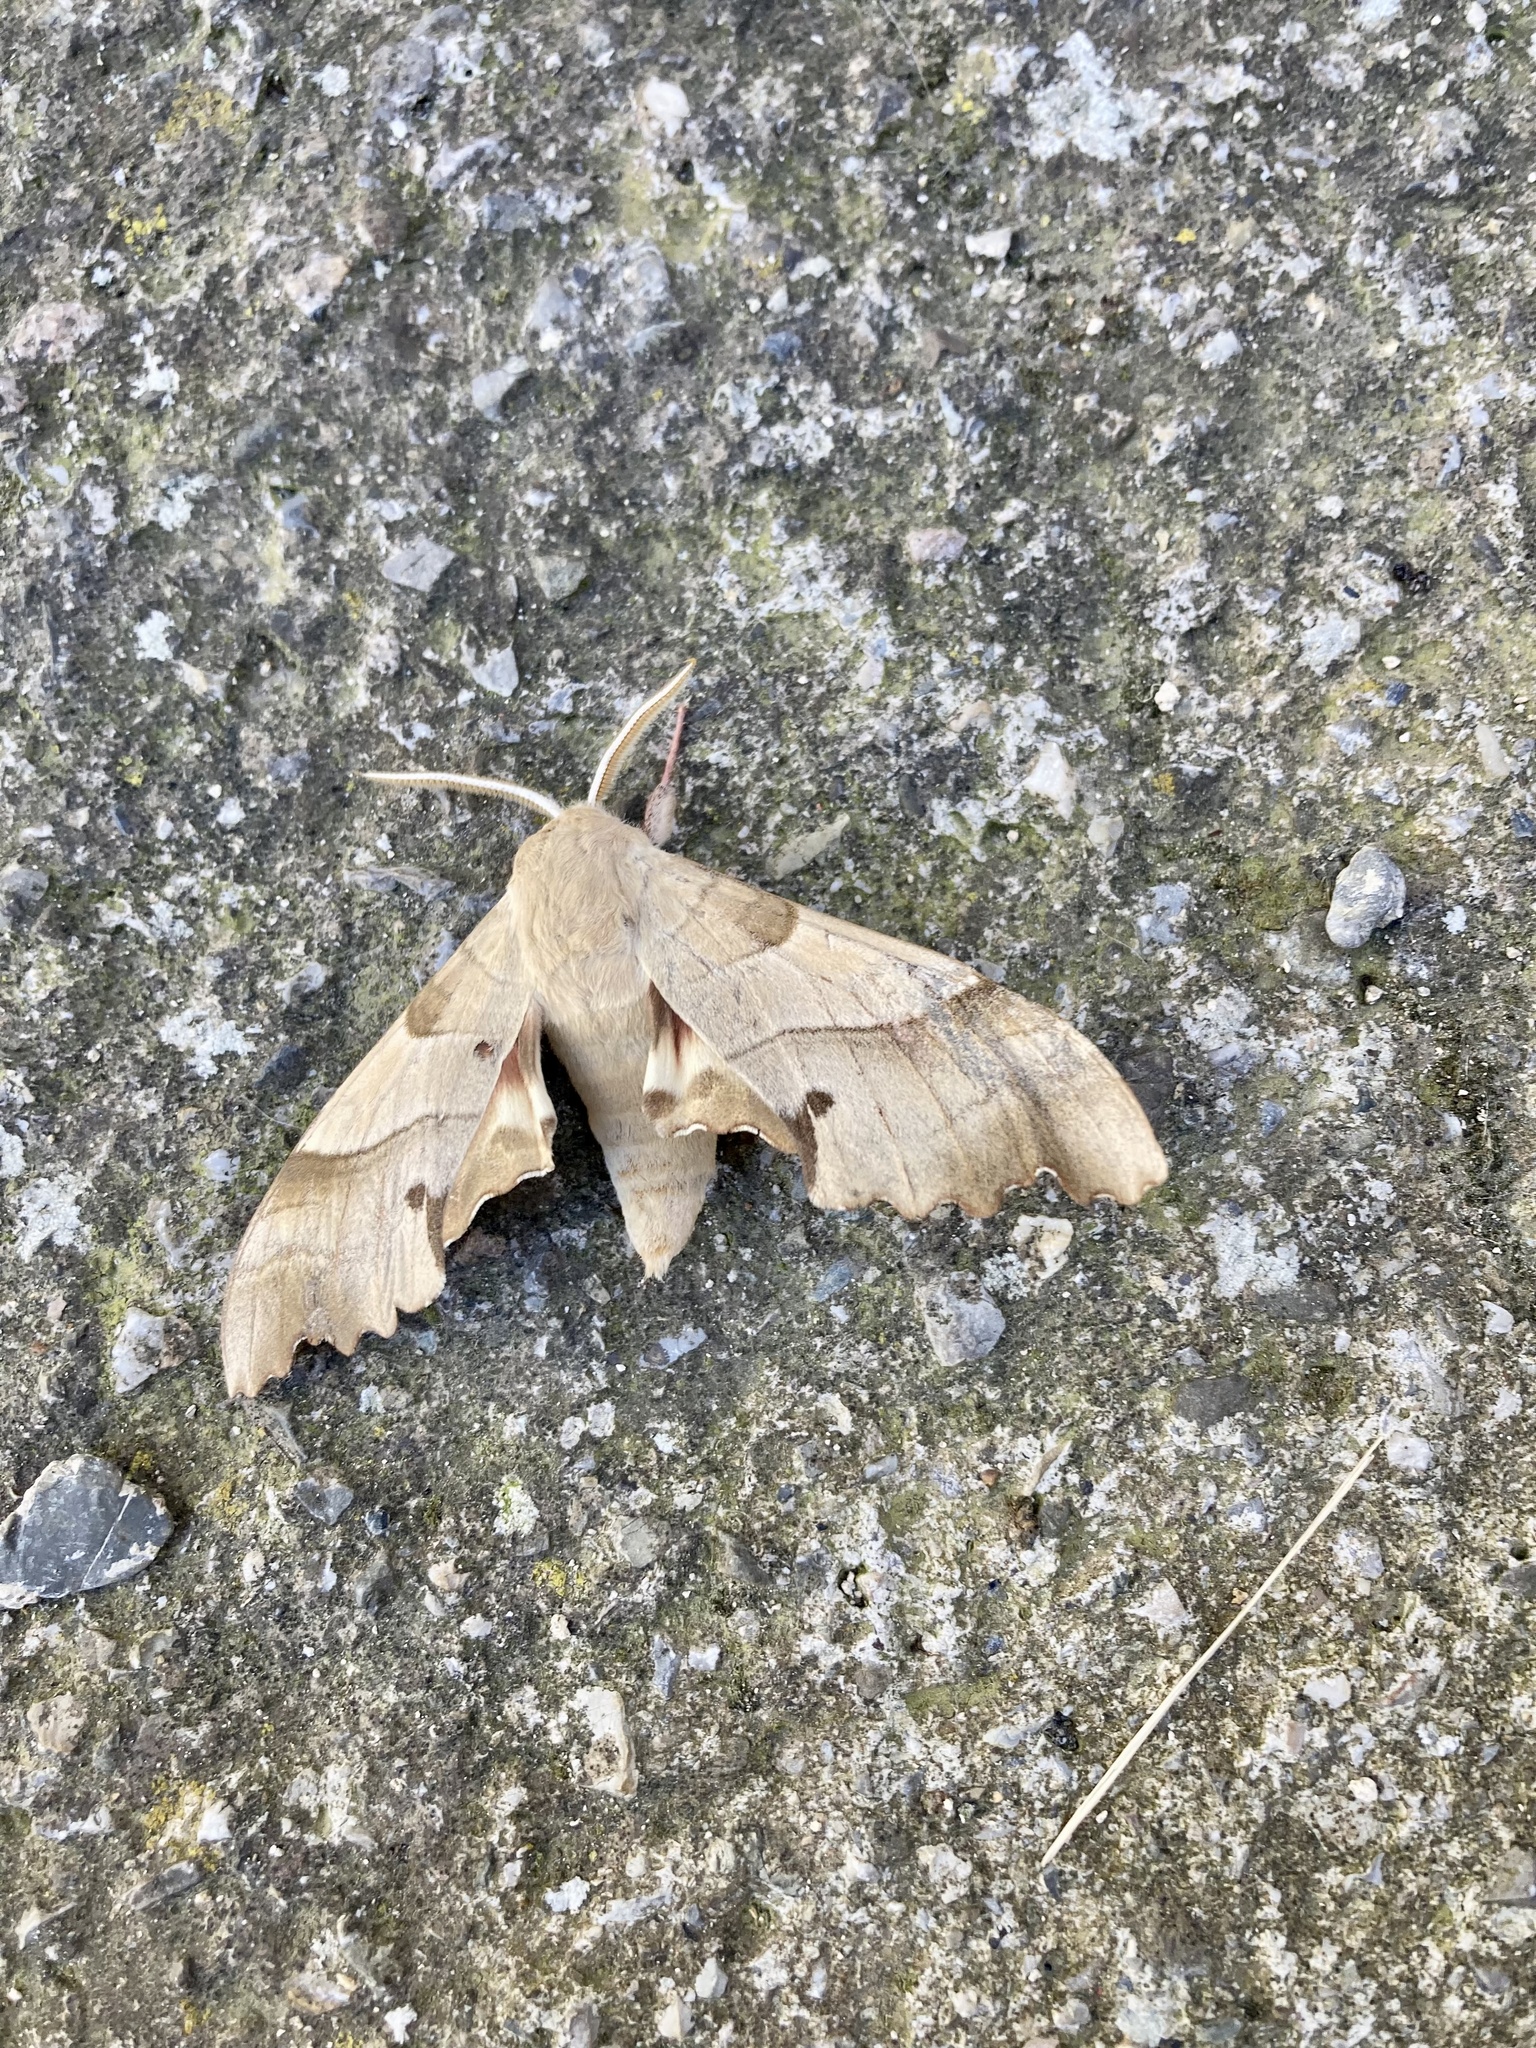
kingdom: Animalia
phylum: Arthropoda
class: Insecta
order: Lepidoptera
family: Sphingidae
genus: Marumba
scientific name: Marumba quercus
